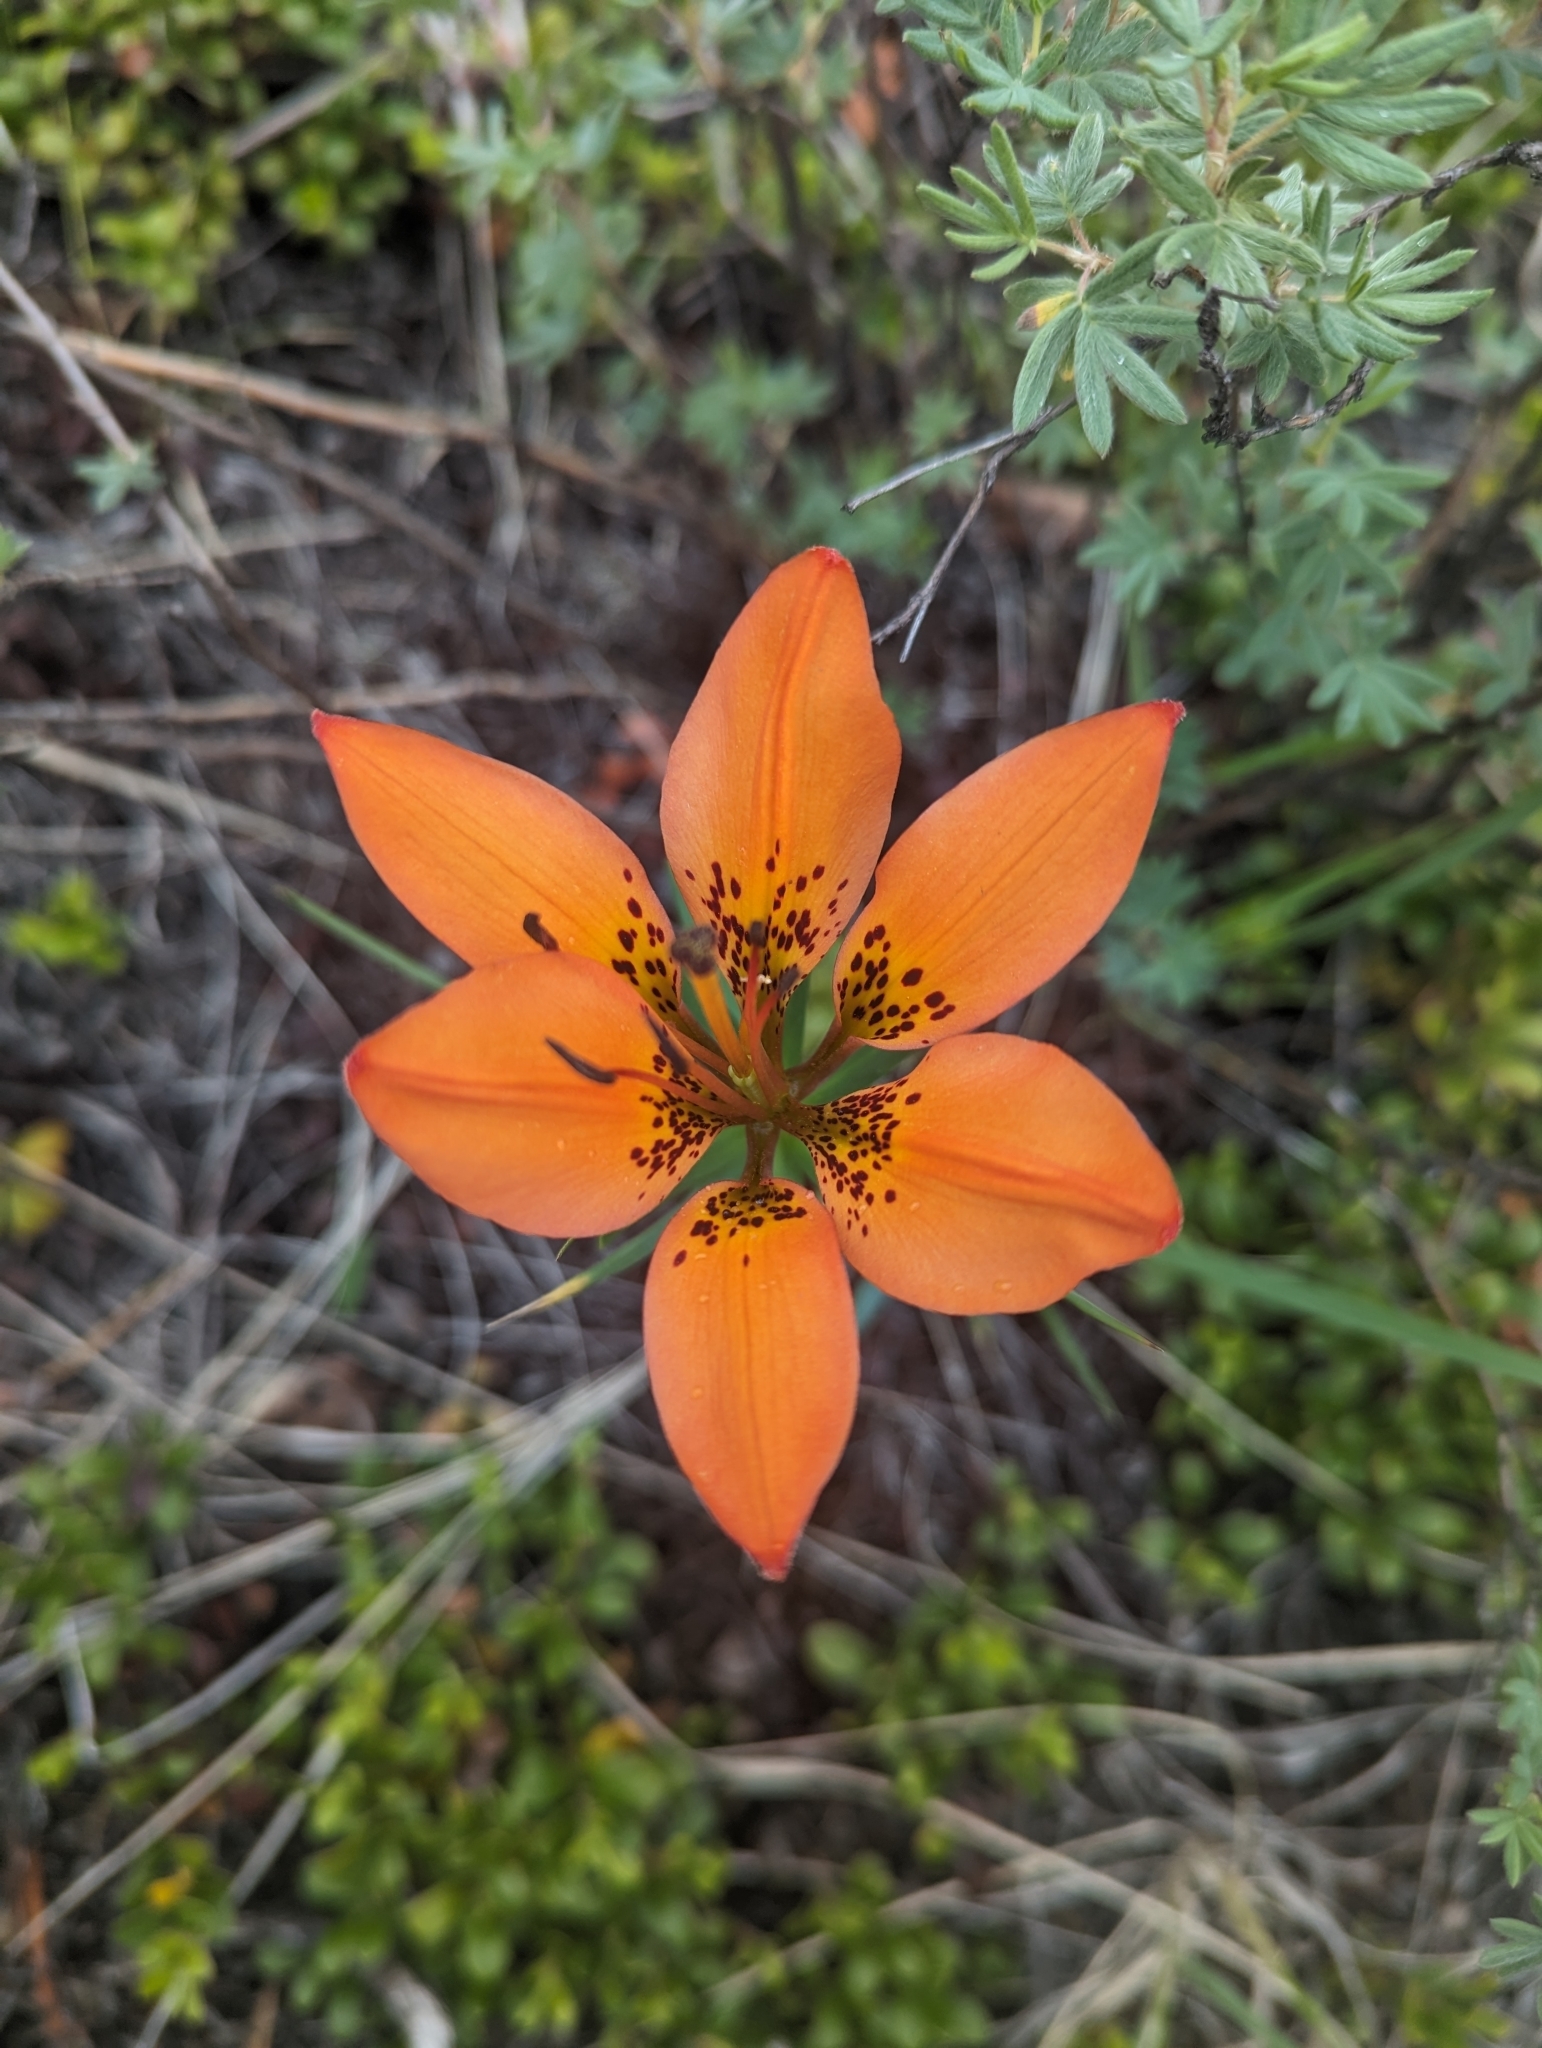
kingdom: Plantae
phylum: Tracheophyta
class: Liliopsida
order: Liliales
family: Liliaceae
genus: Lilium
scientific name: Lilium philadelphicum
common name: Red lily
